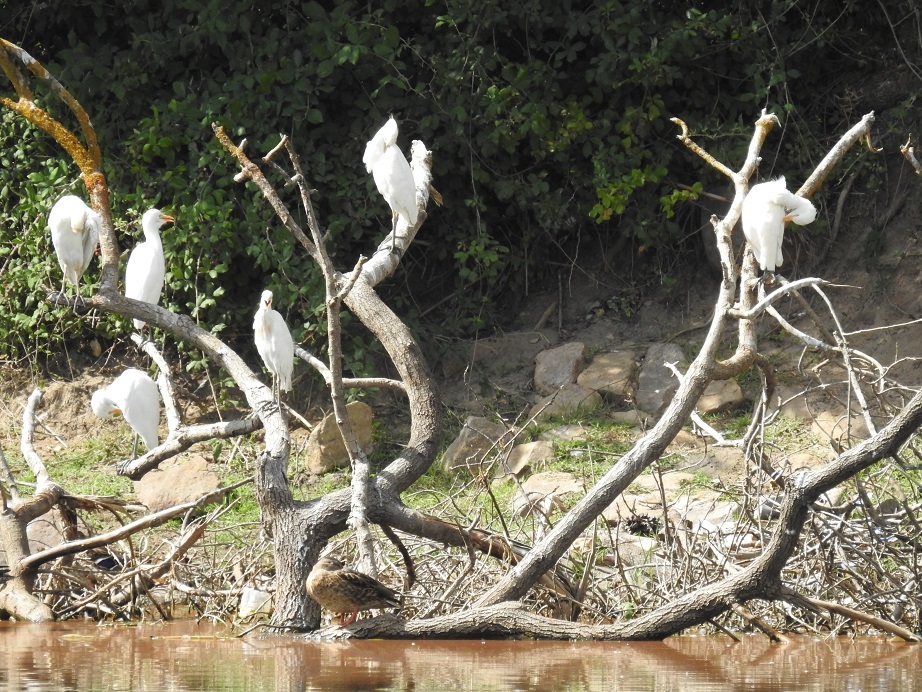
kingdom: Animalia
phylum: Chordata
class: Aves
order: Pelecaniformes
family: Ardeidae
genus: Bubulcus
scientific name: Bubulcus ibis
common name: Cattle egret
